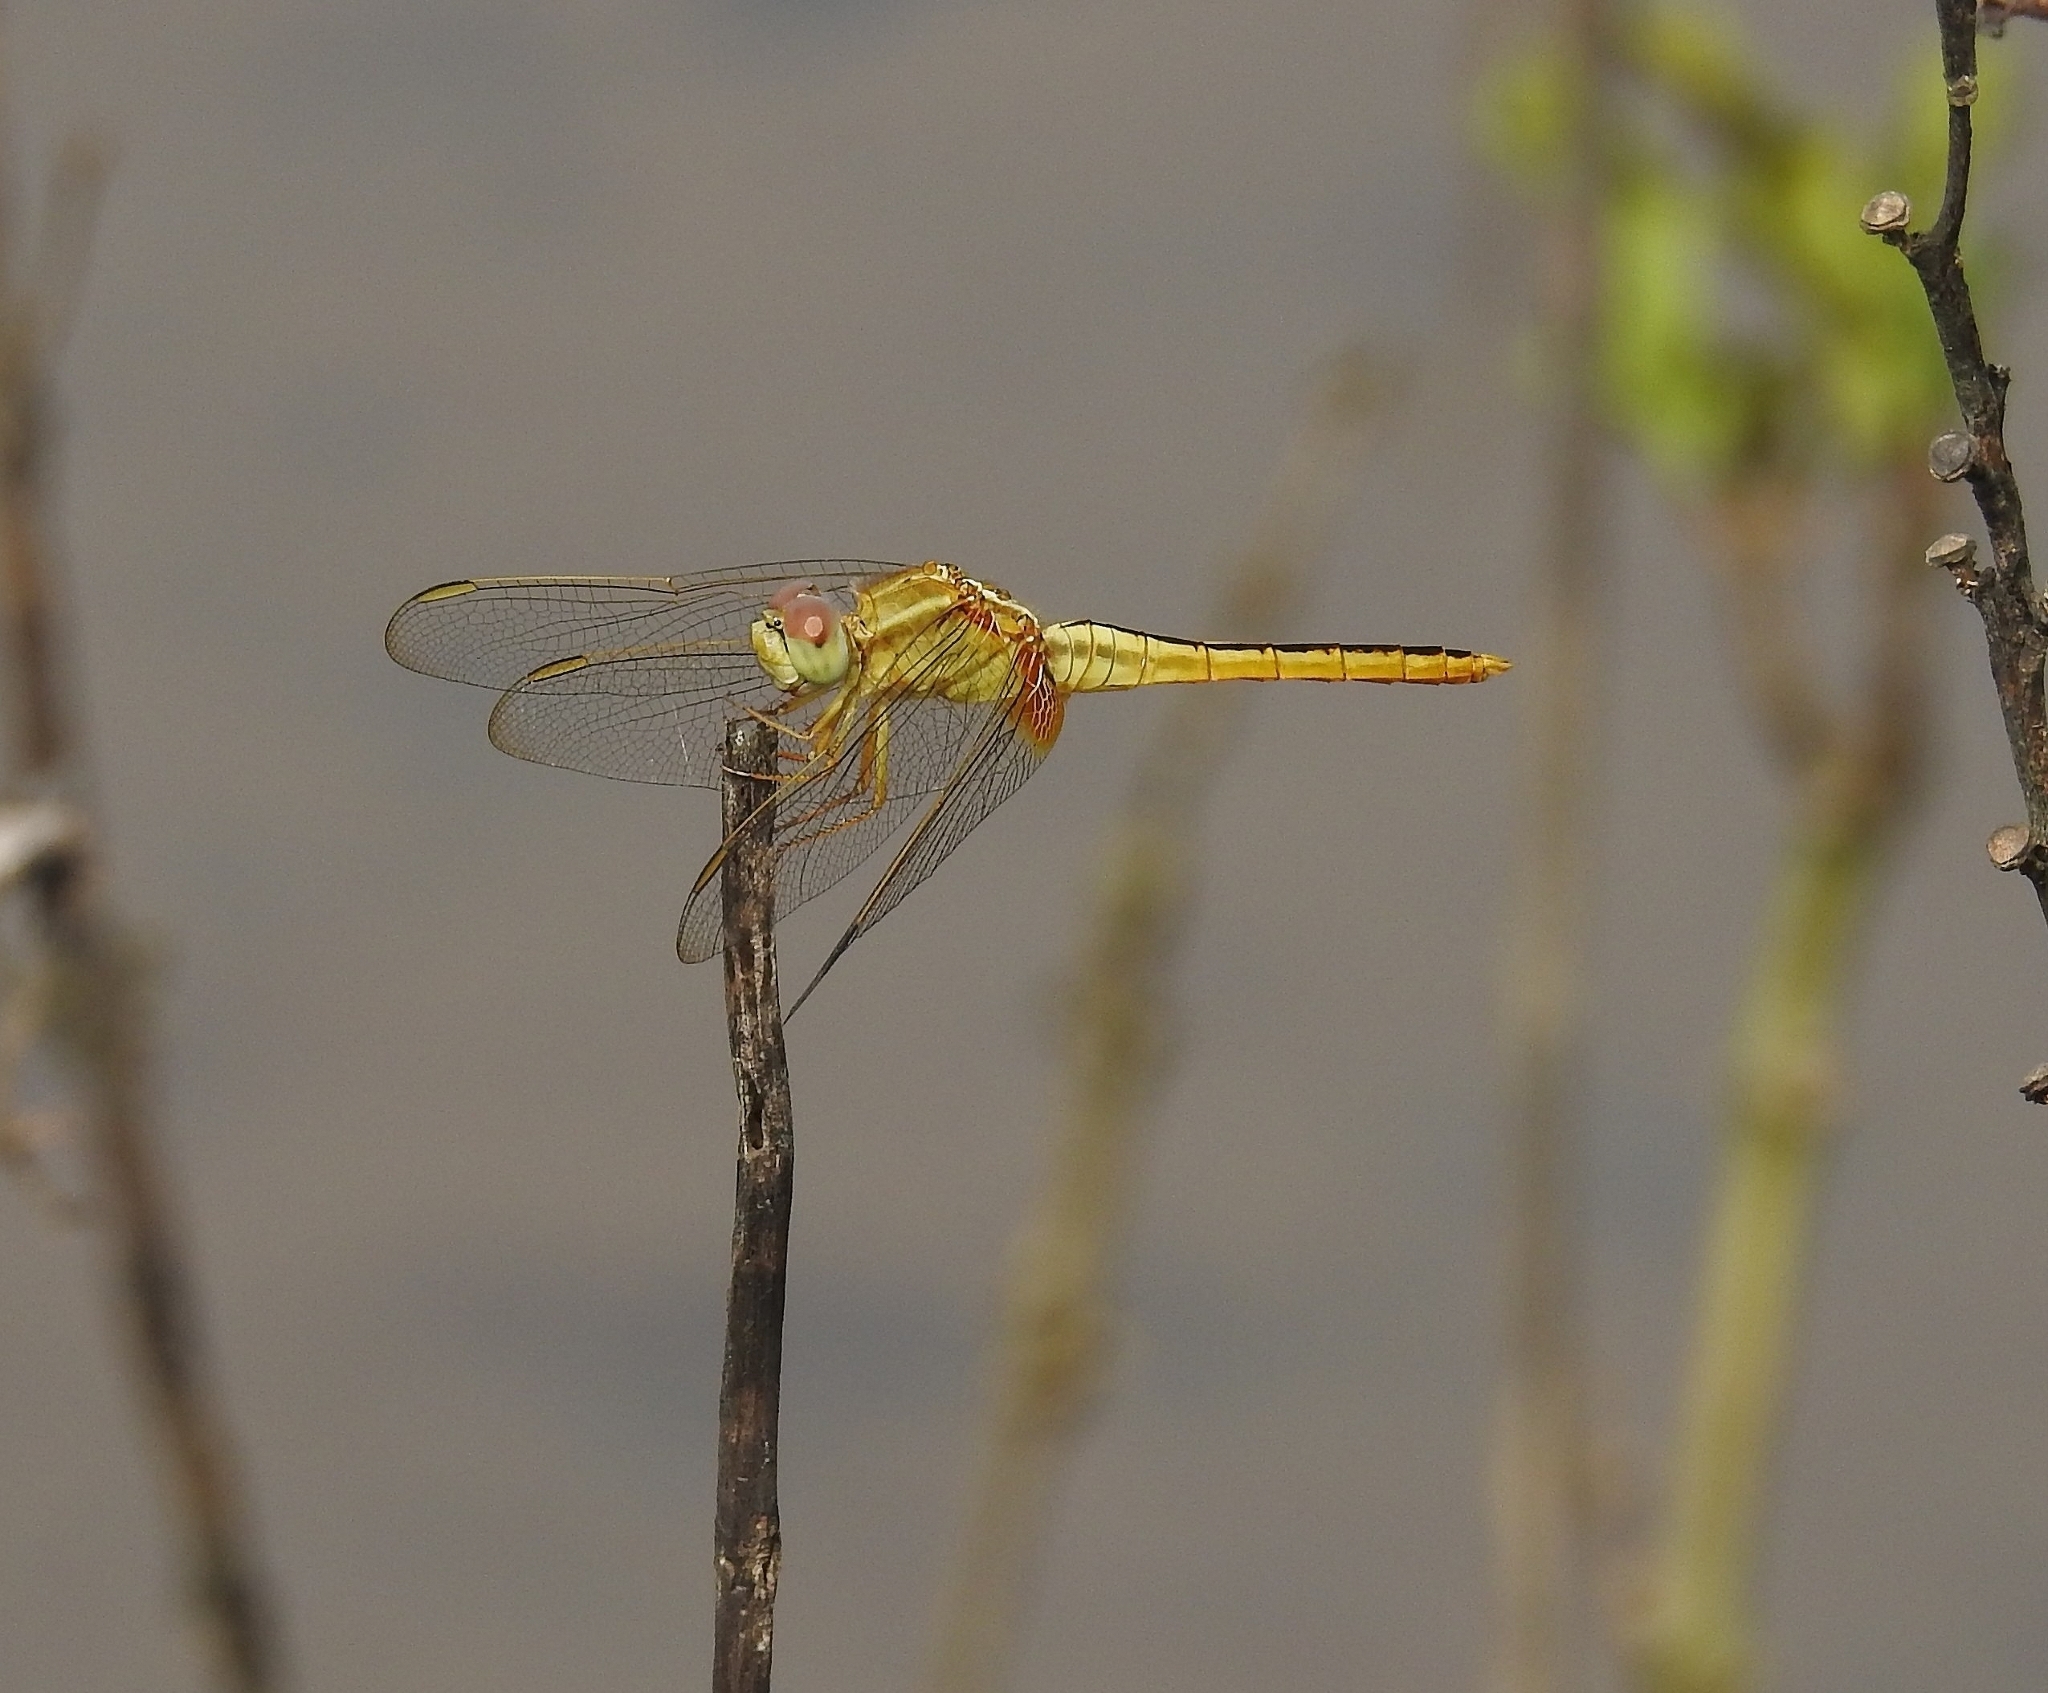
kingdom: Animalia
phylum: Arthropoda
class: Insecta
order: Odonata
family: Libellulidae
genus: Crocothemis
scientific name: Crocothemis servilia
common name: Scarlet skimmer
